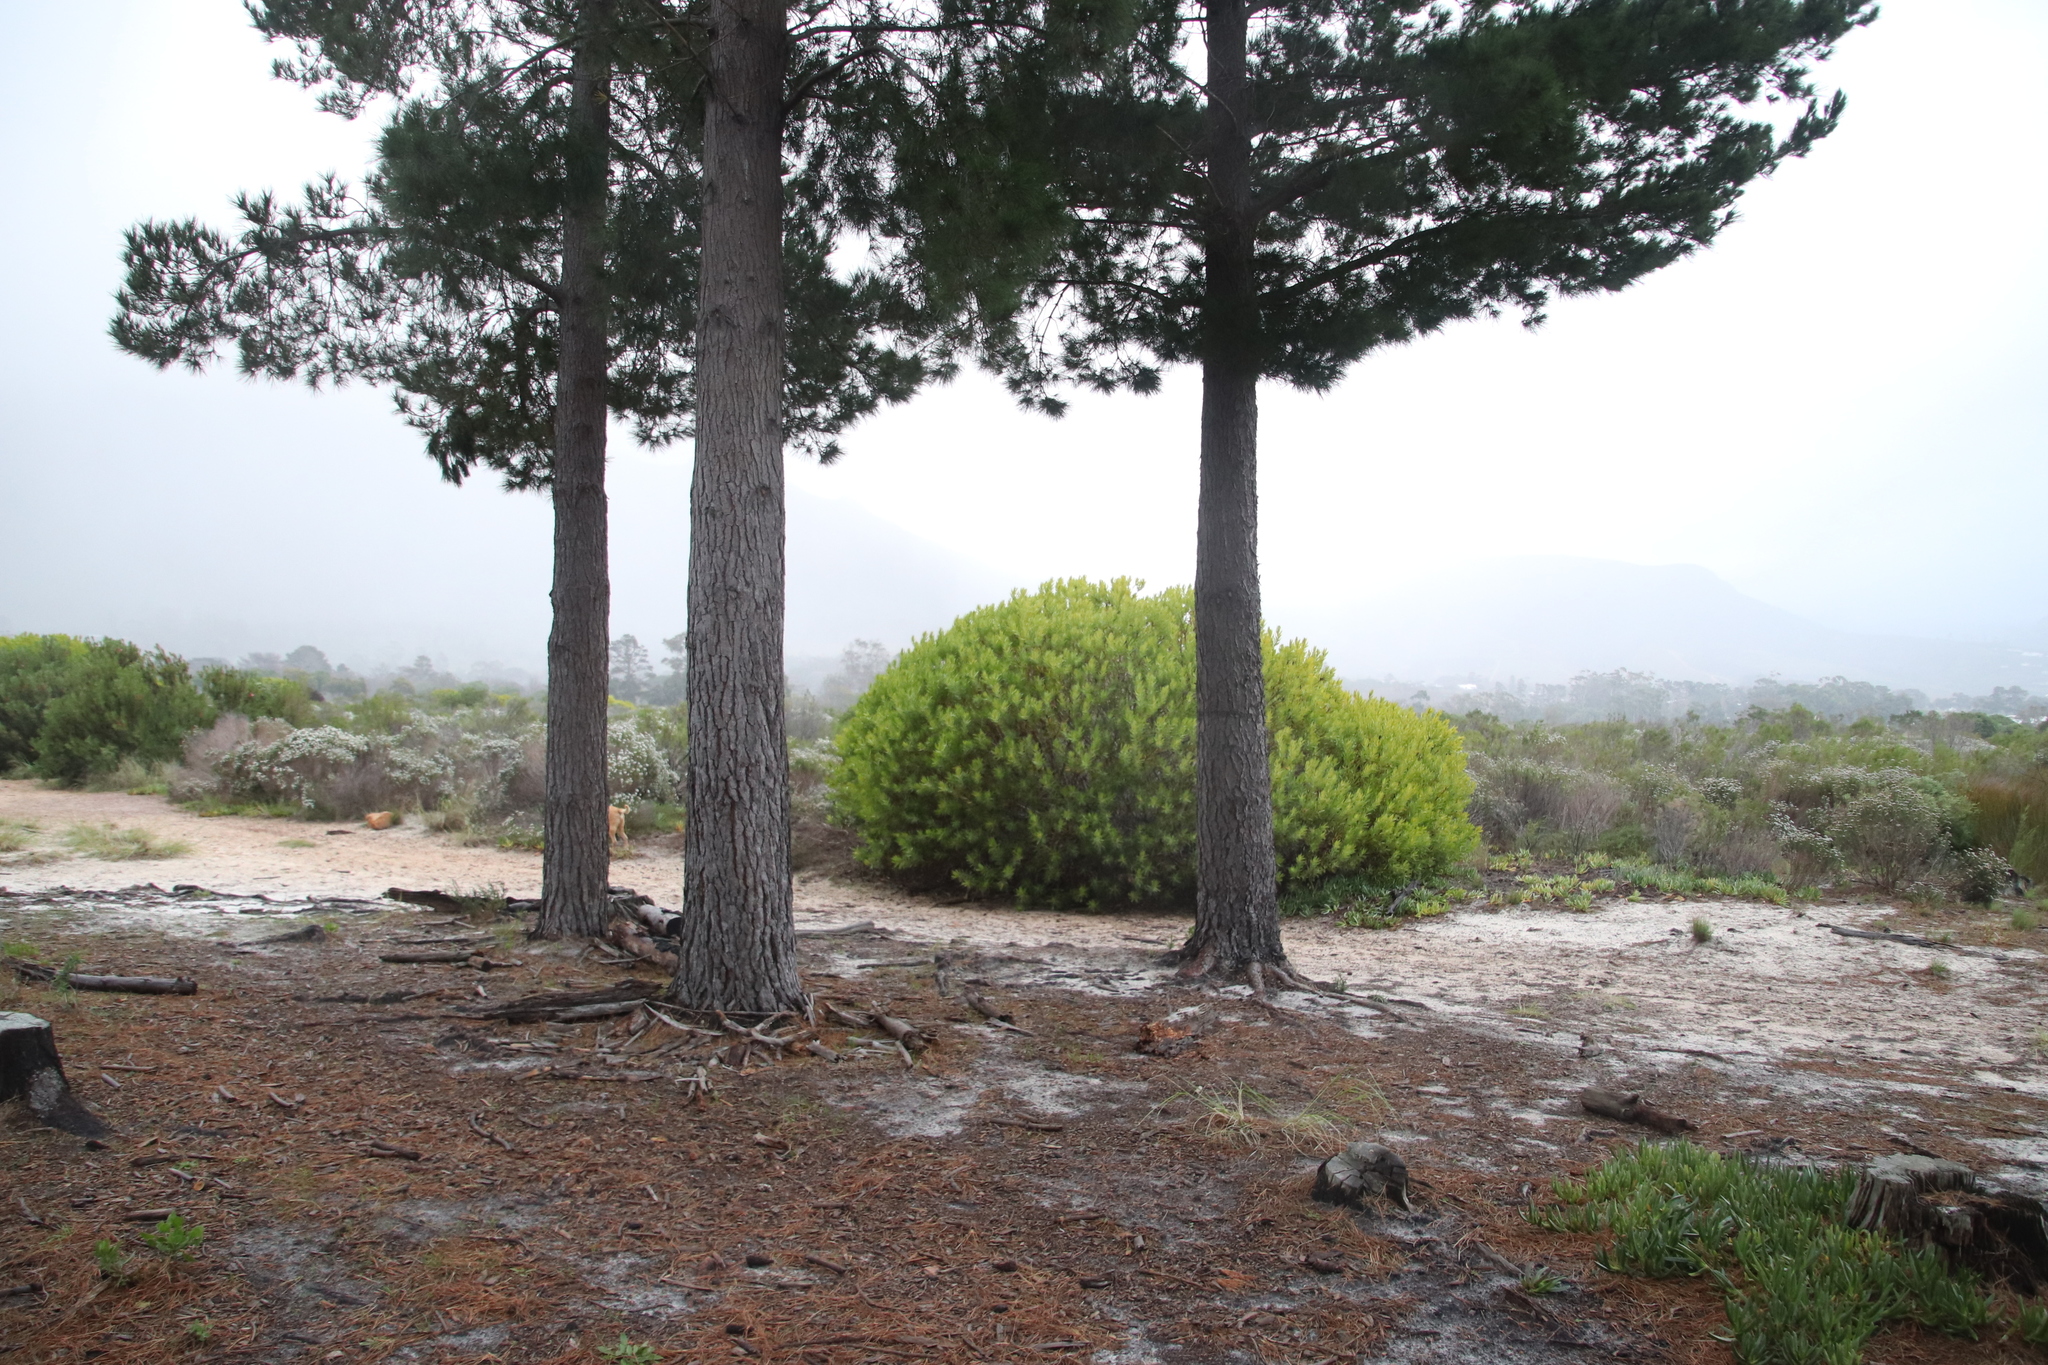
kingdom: Plantae
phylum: Tracheophyta
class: Magnoliopsida
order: Proteales
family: Proteaceae
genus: Leucadendron
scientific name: Leucadendron laureolum
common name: Golden sunshinebush
